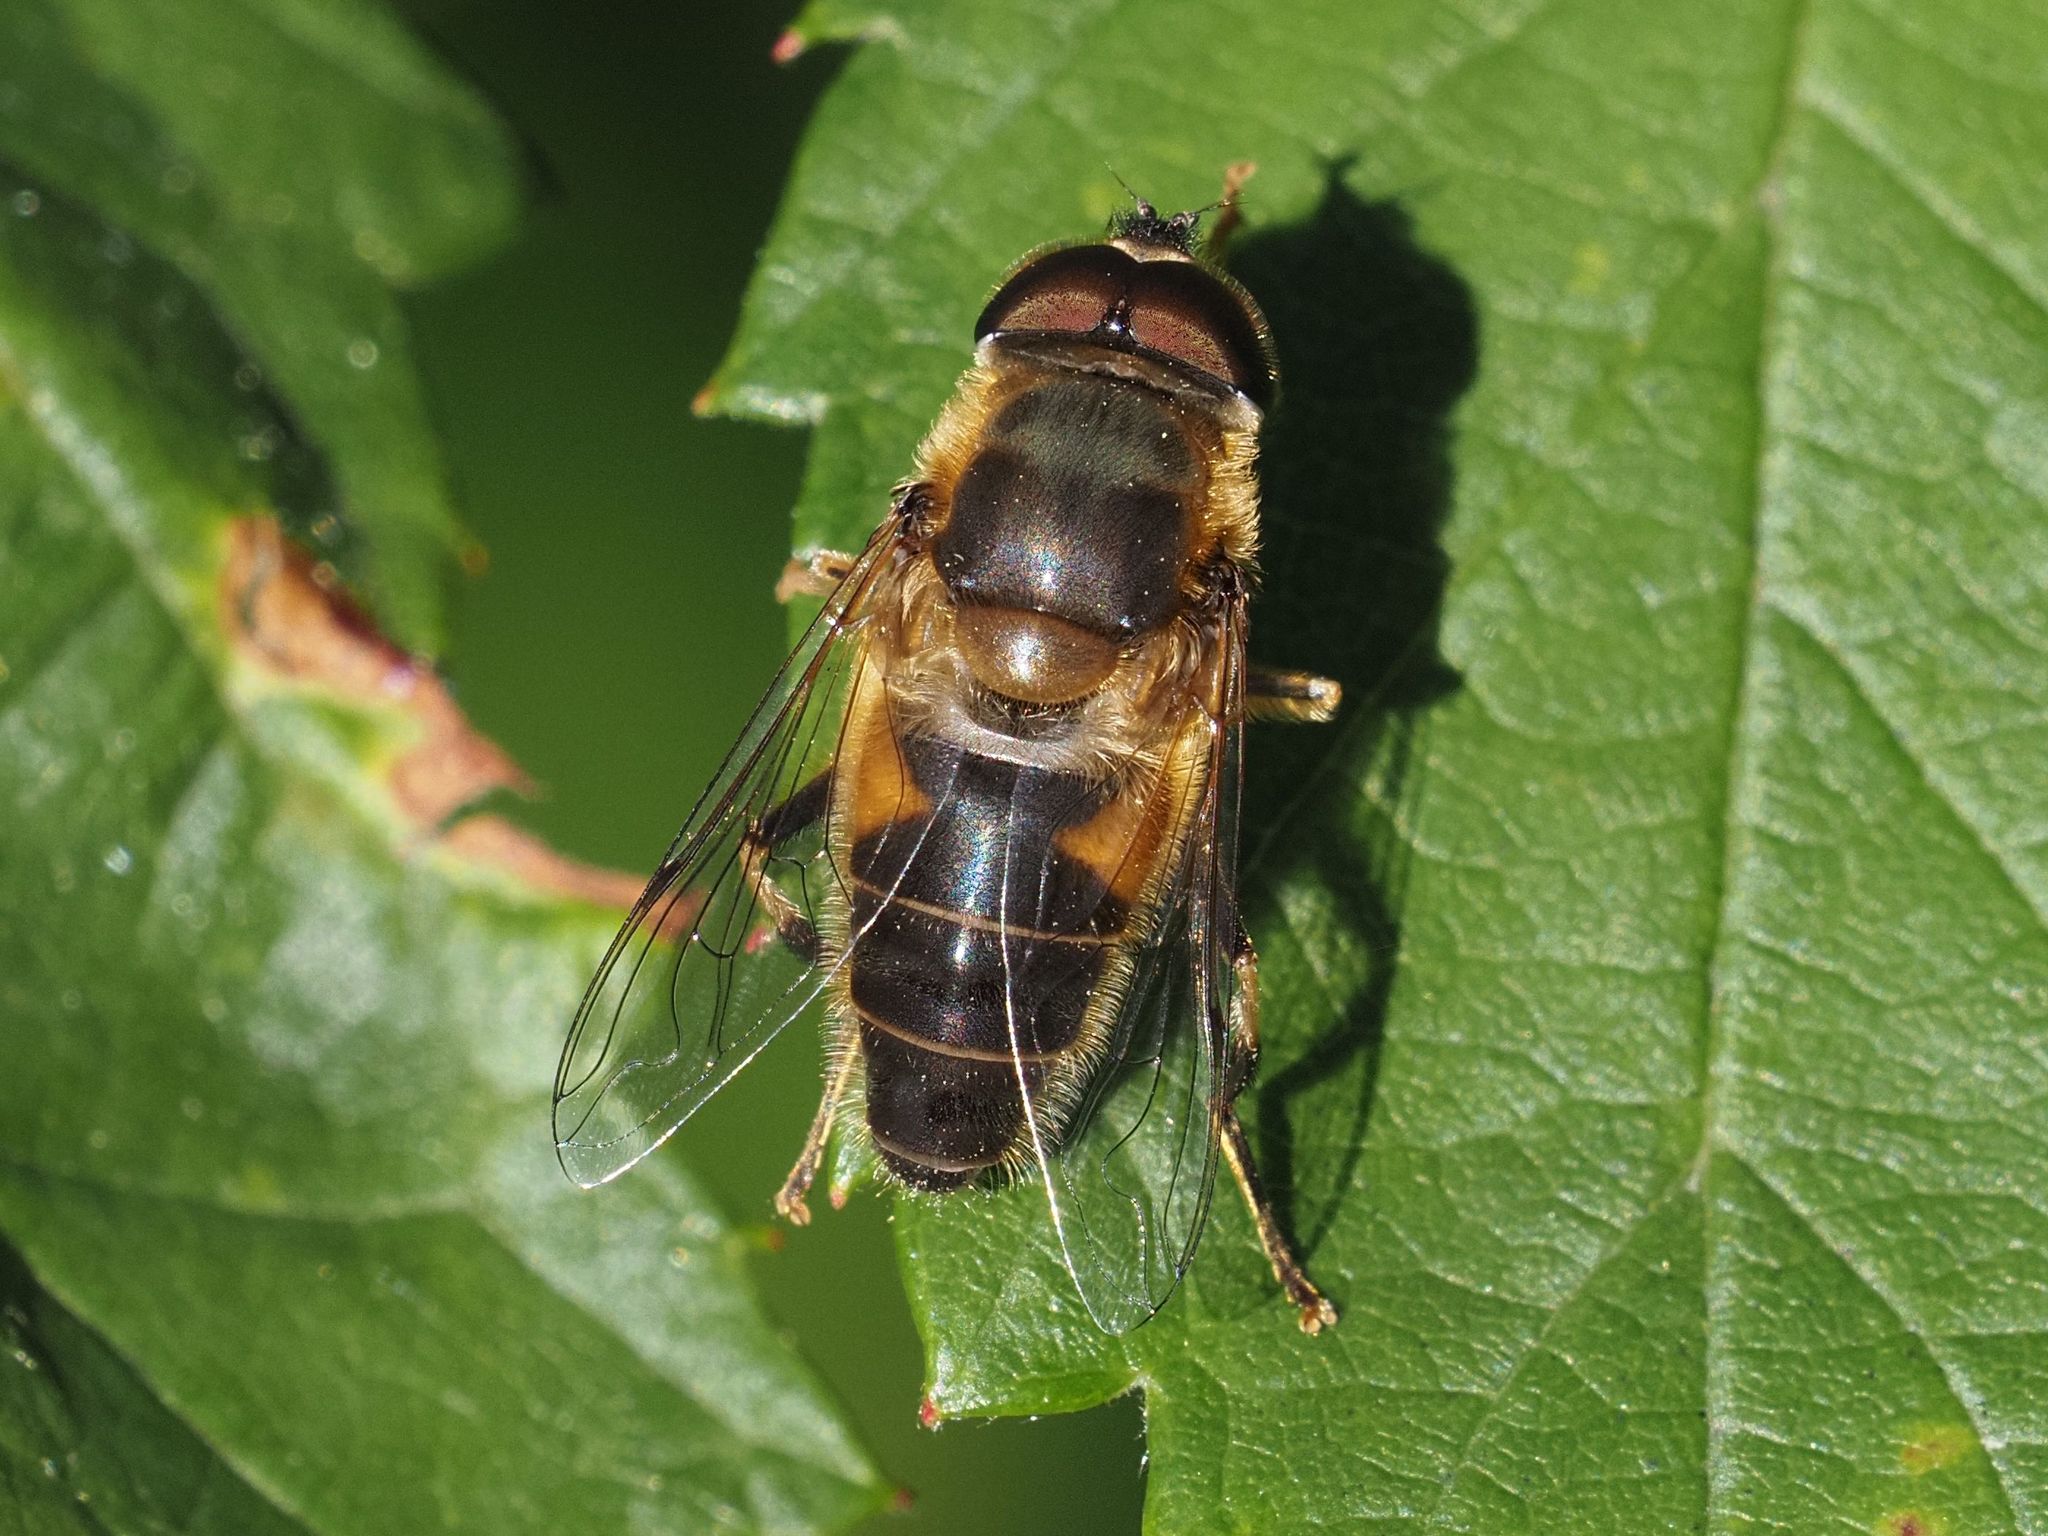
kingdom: Animalia
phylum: Arthropoda
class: Insecta
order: Diptera
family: Syrphidae
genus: Eristalis
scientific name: Eristalis pertinax
